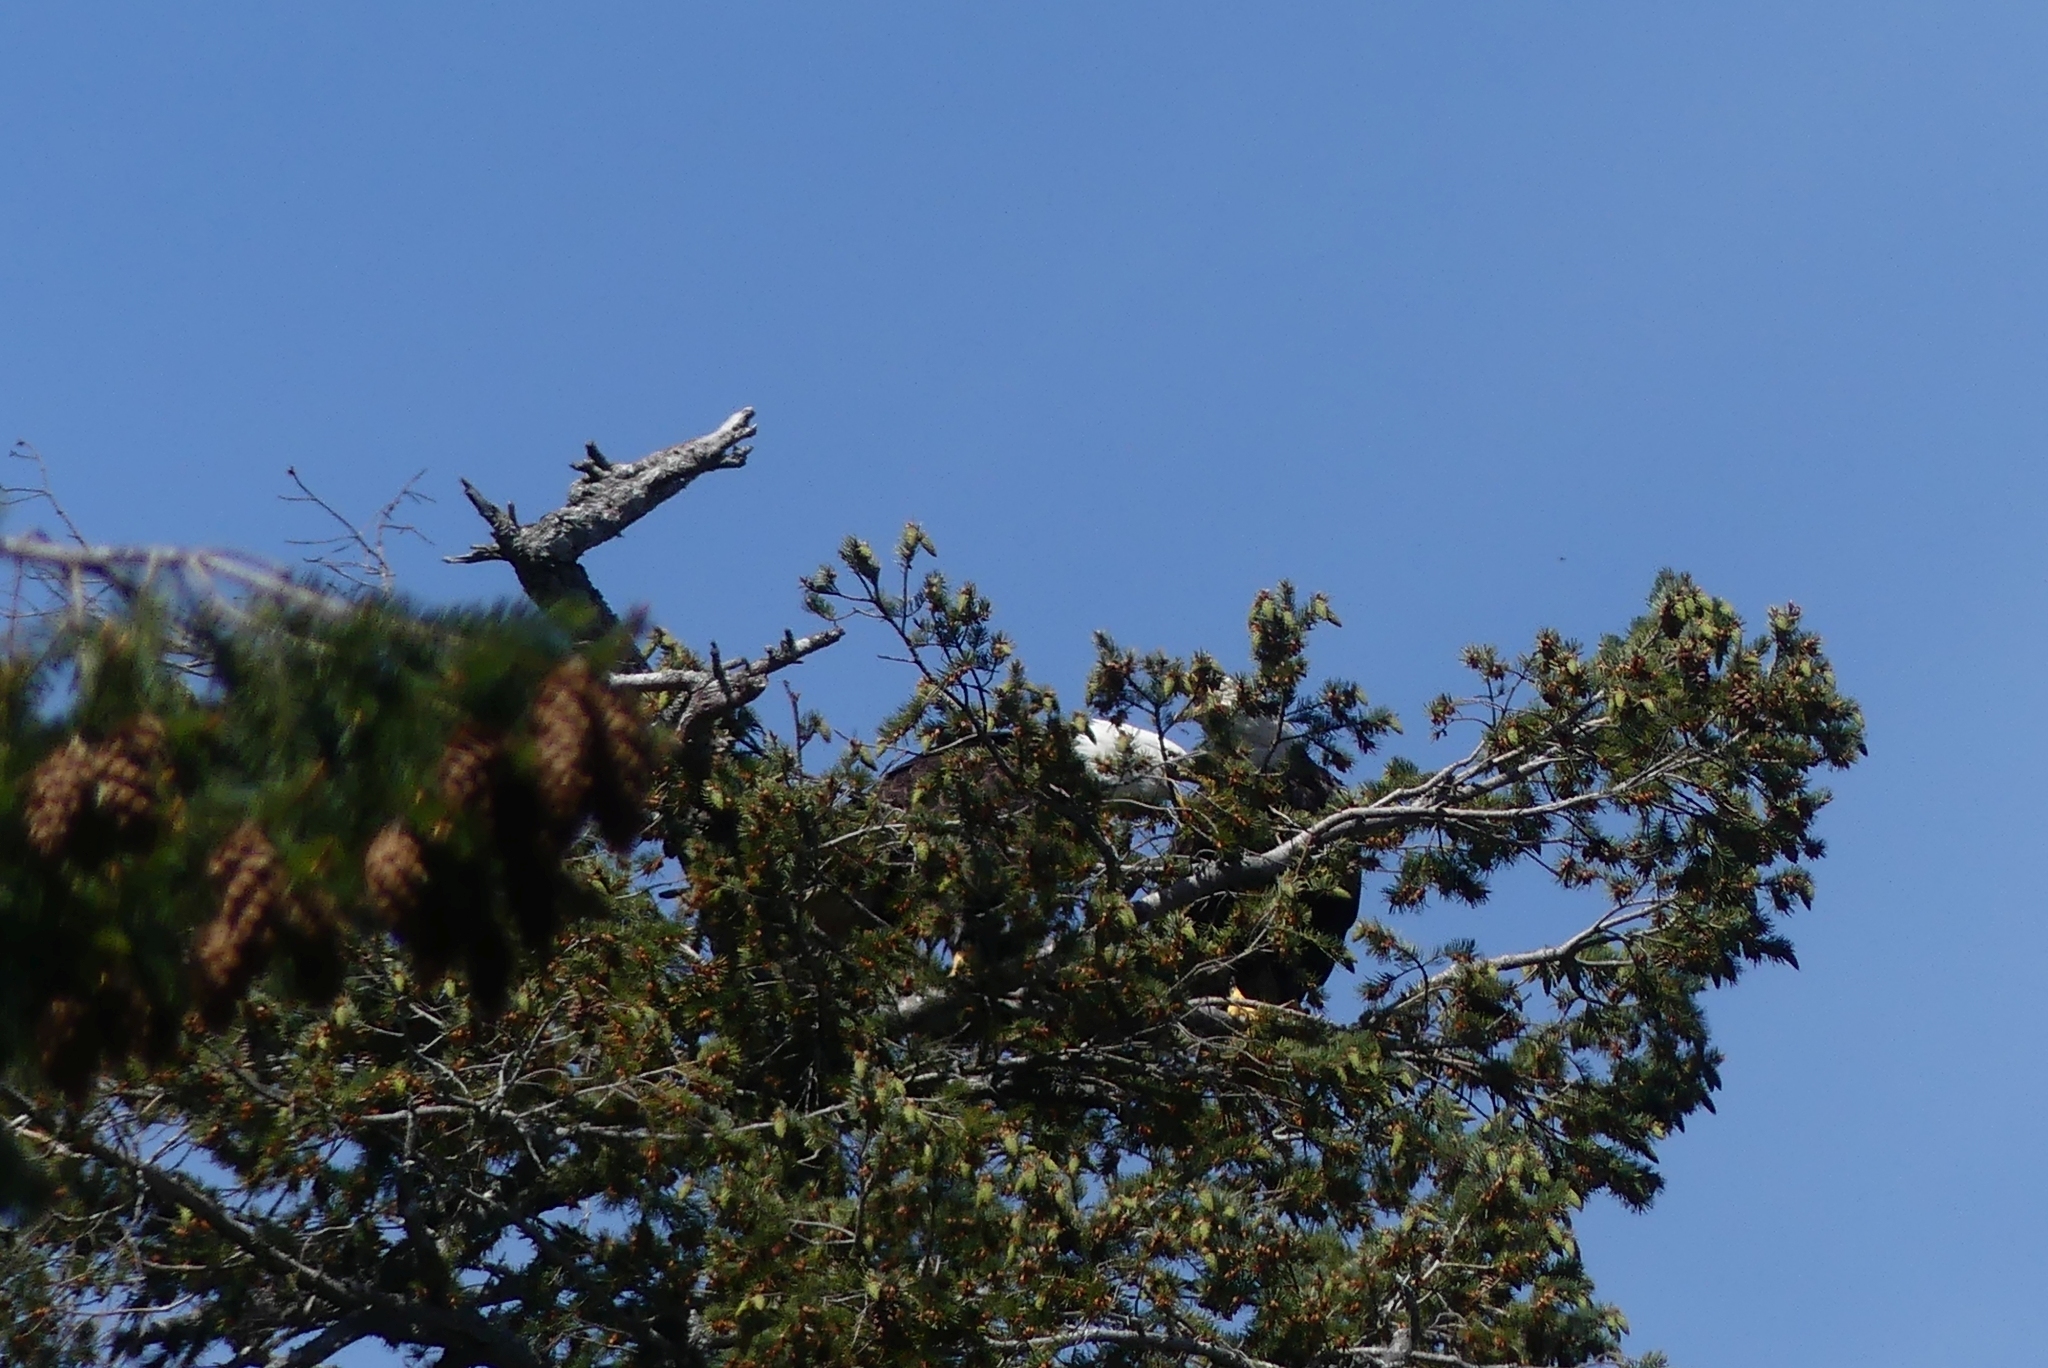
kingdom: Animalia
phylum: Chordata
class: Aves
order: Accipitriformes
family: Accipitridae
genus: Haliaeetus
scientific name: Haliaeetus leucocephalus
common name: Bald eagle
